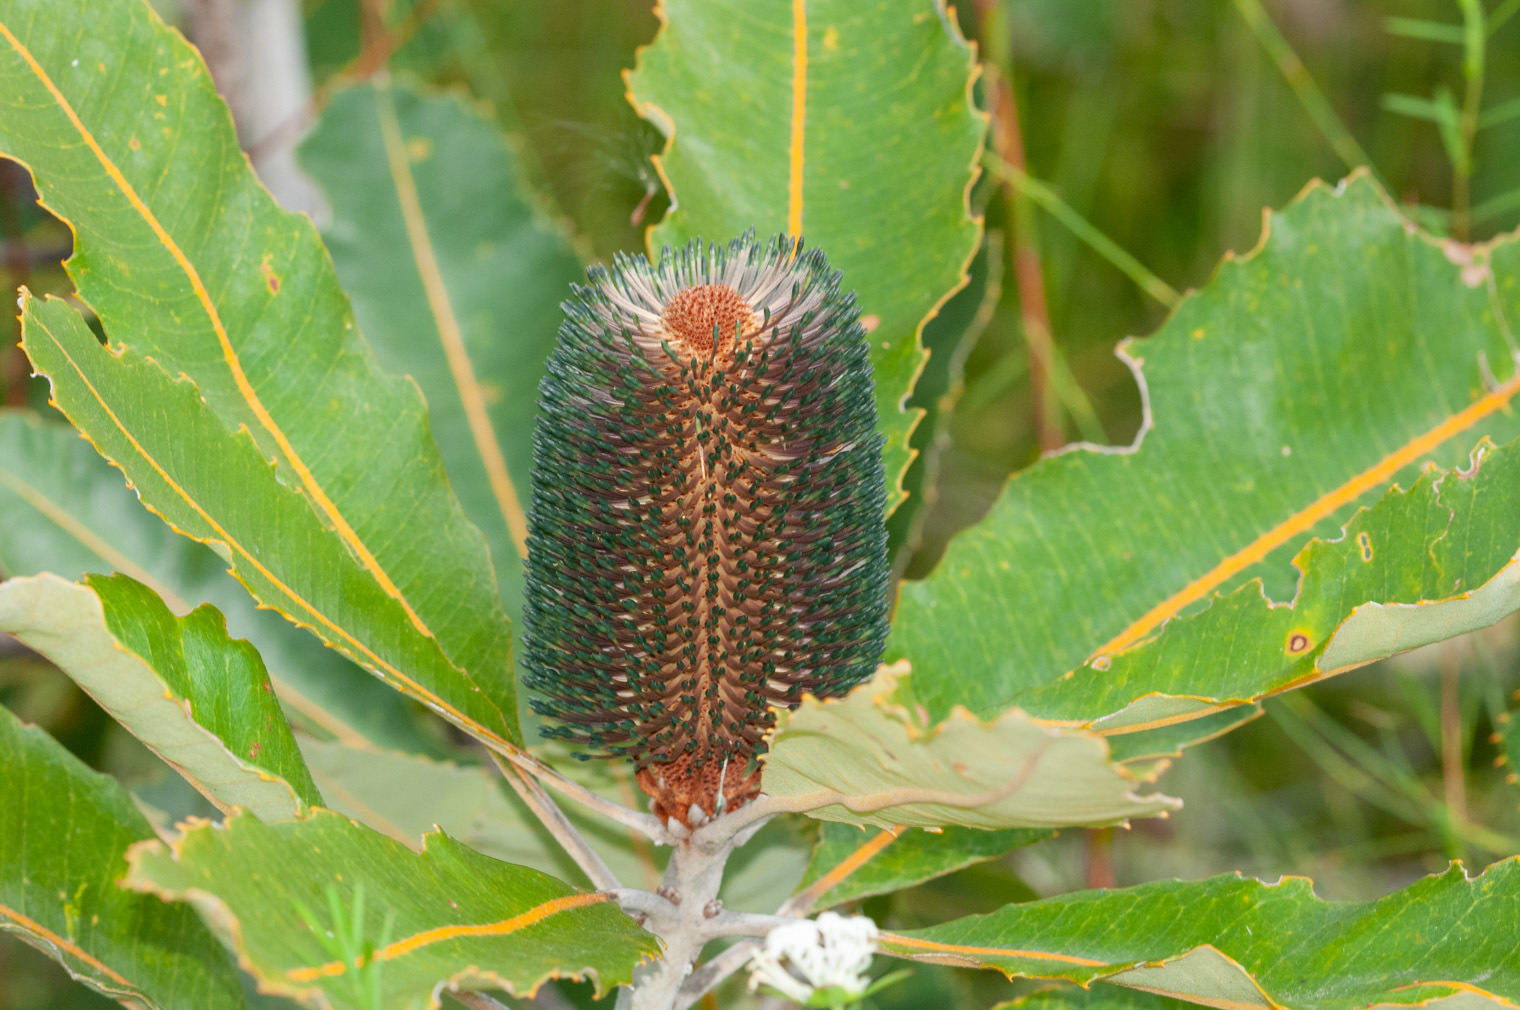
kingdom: Plantae
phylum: Tracheophyta
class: Magnoliopsida
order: Proteales
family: Proteaceae
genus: Banksia
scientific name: Banksia robur
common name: Broadleaf banksia
